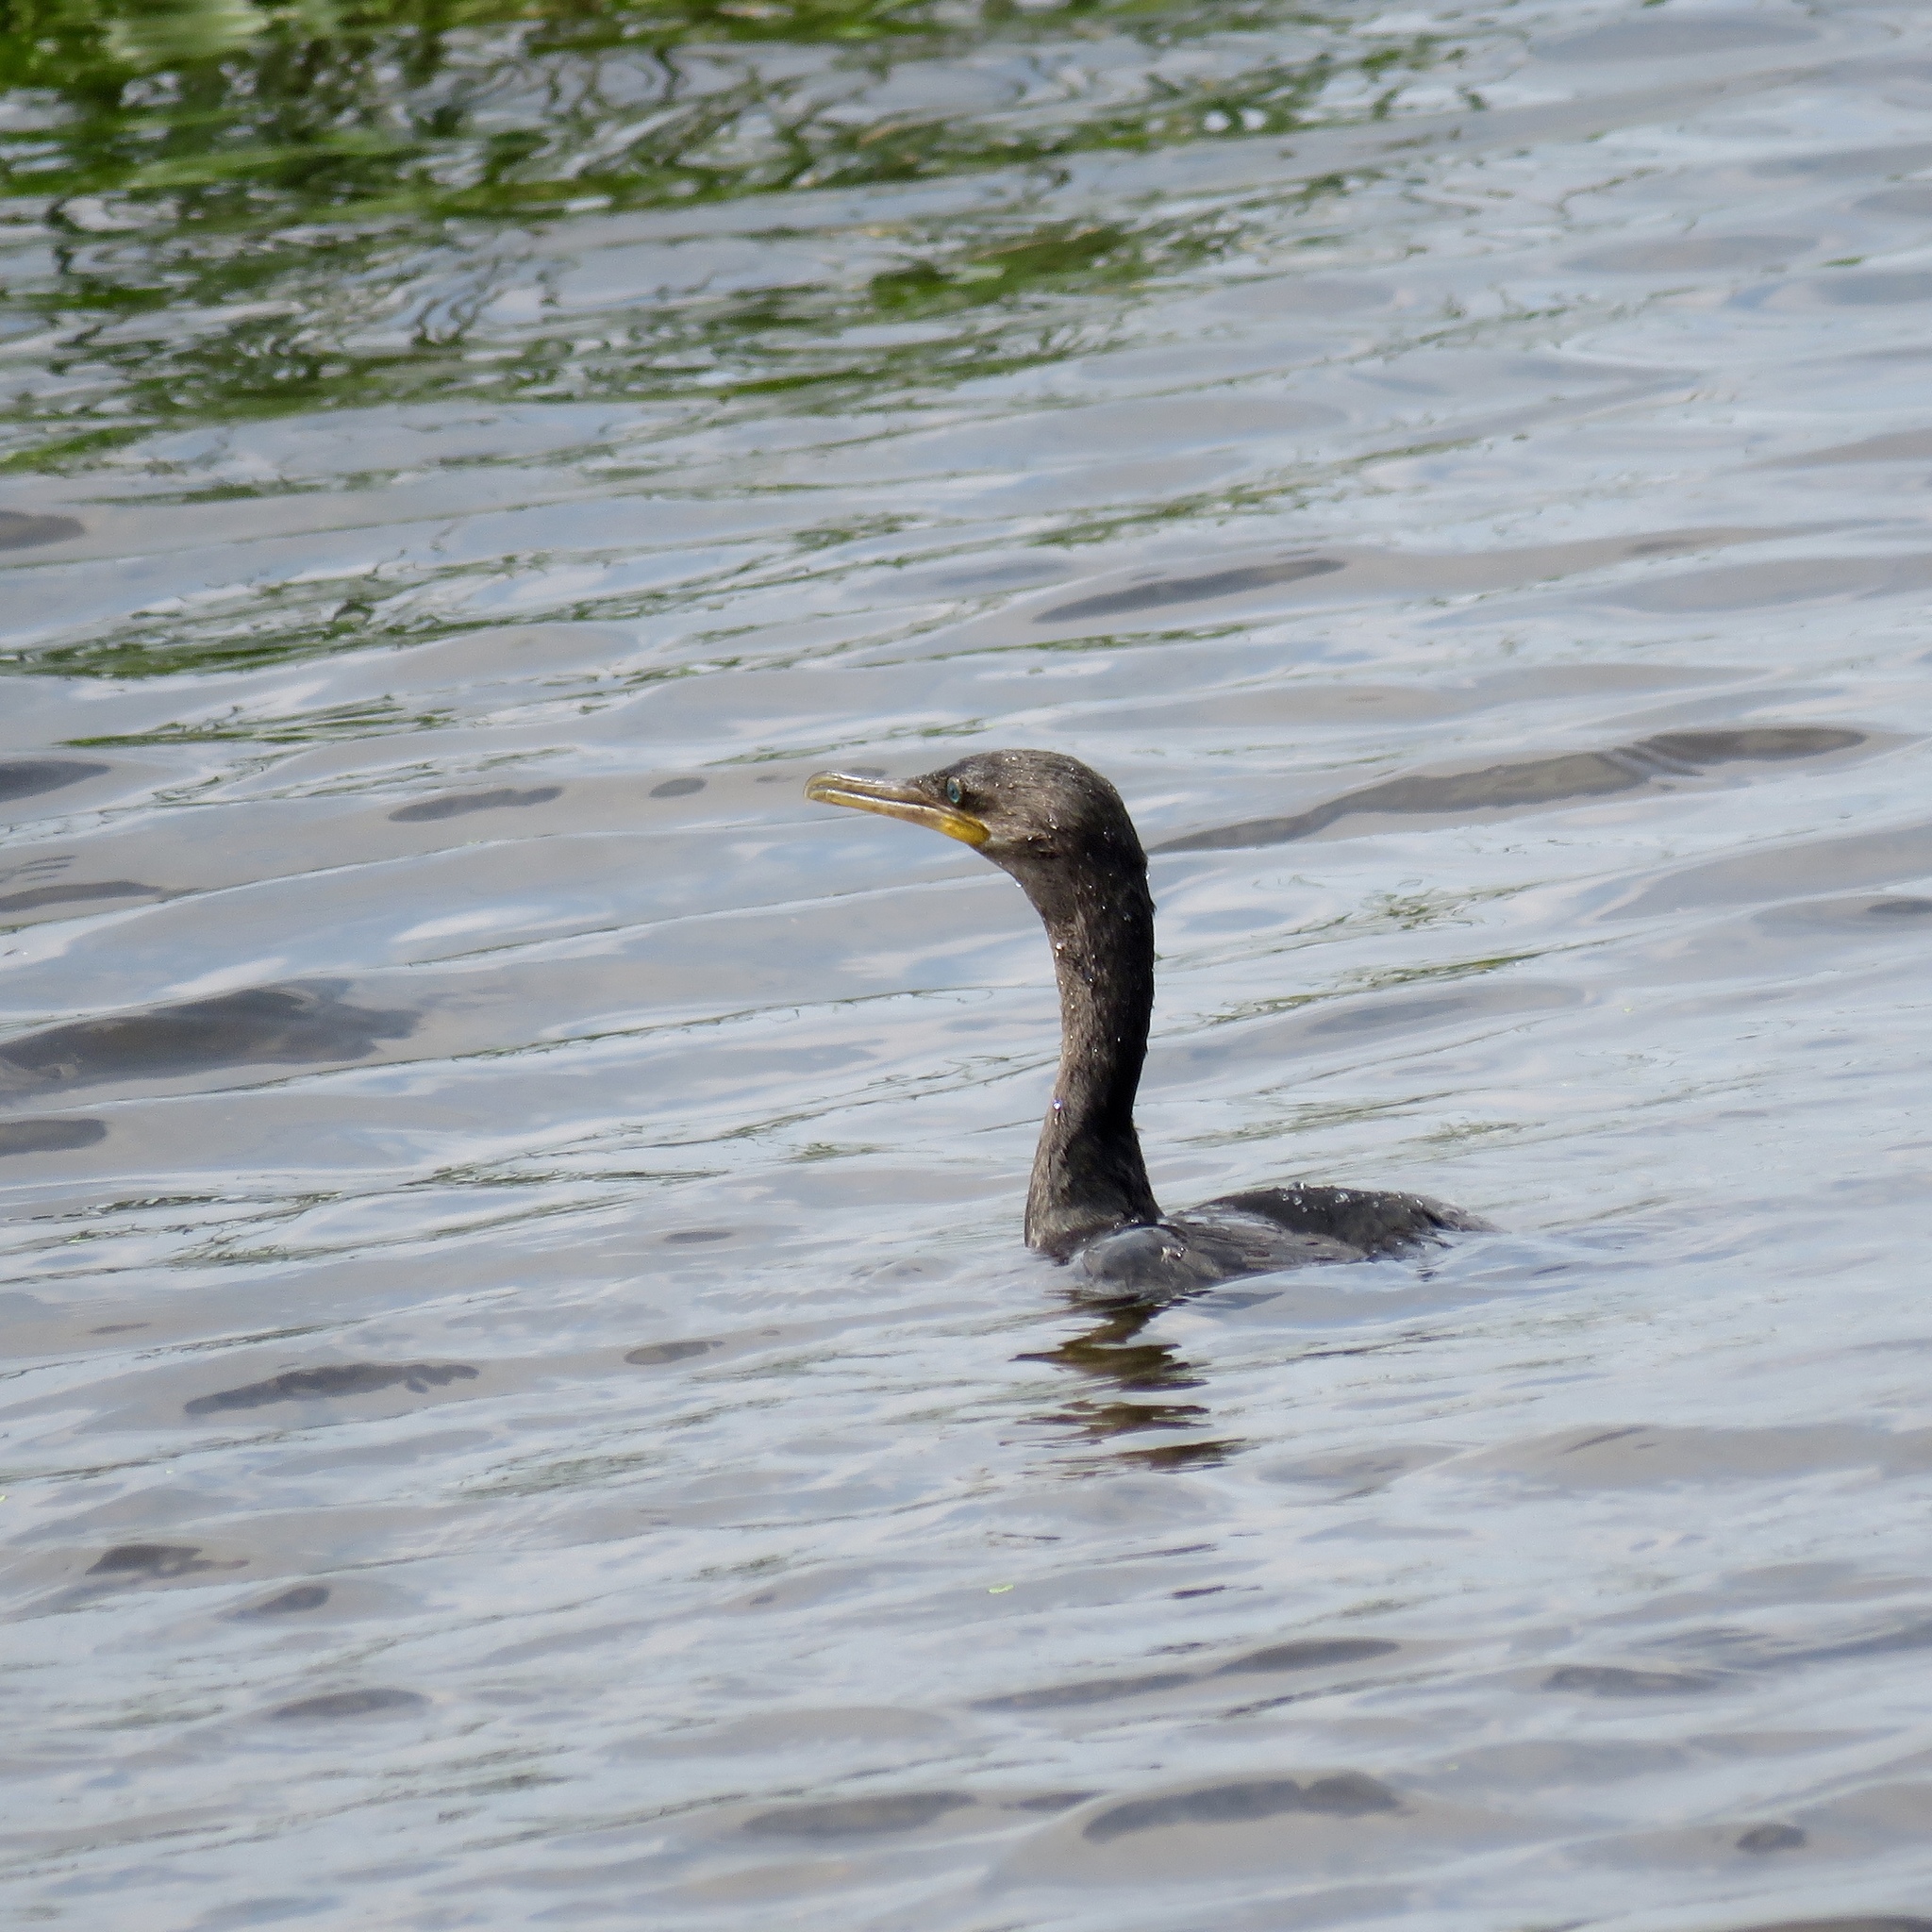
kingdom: Animalia
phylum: Chordata
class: Aves
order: Suliformes
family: Phalacrocoracidae
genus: Phalacrocorax
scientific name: Phalacrocorax brasilianus
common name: Neotropic cormorant
